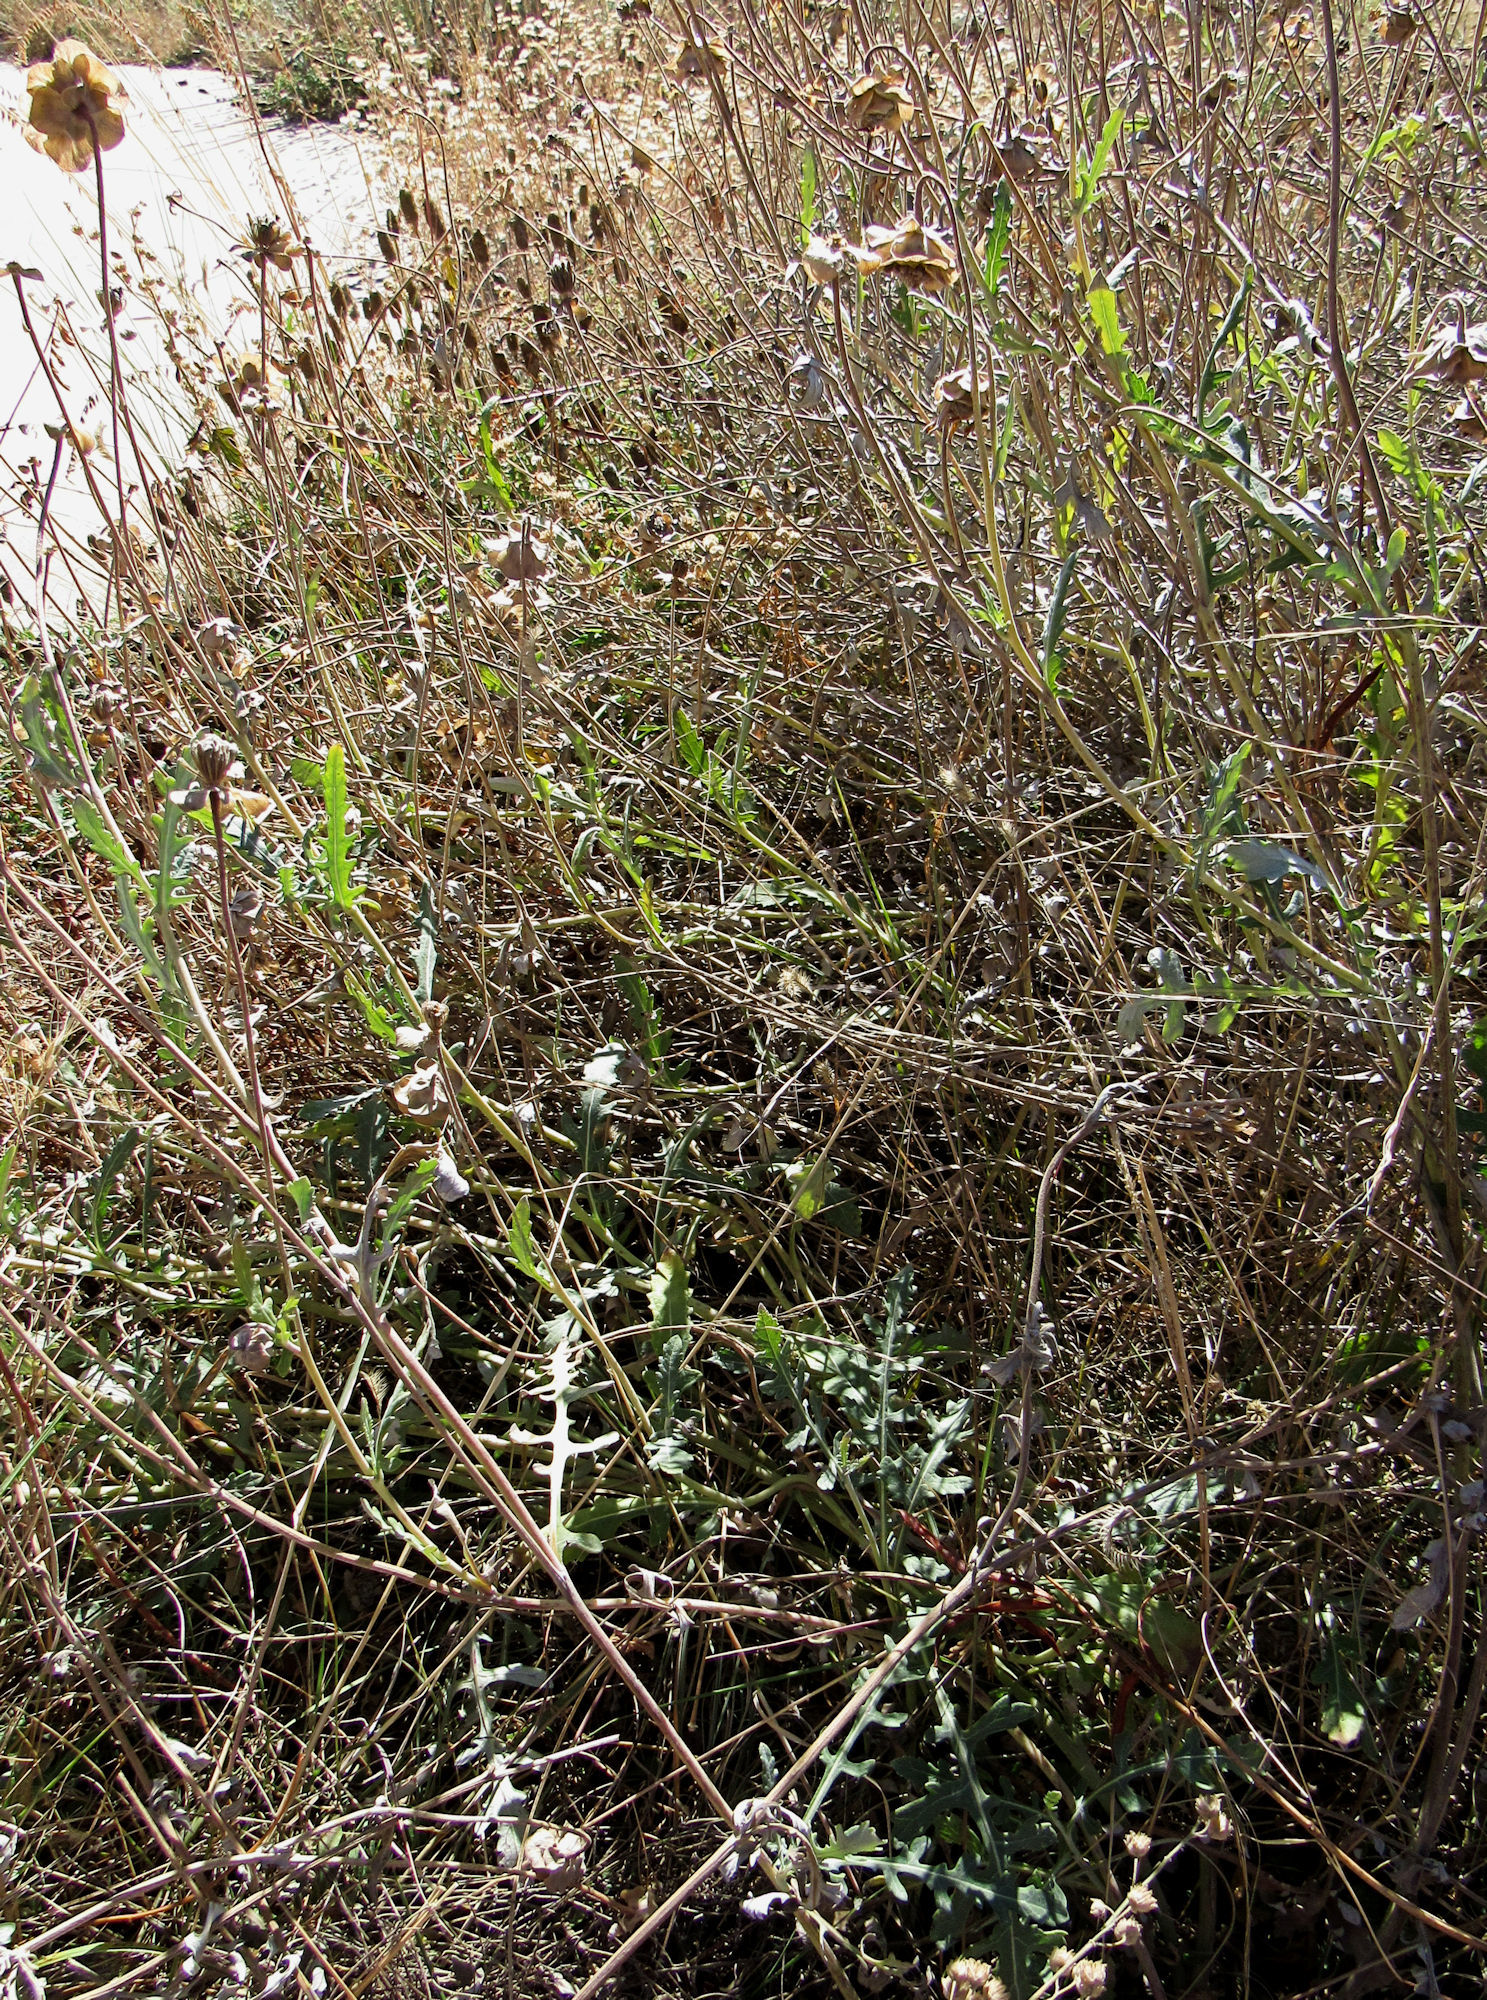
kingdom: Plantae
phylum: Tracheophyta
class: Magnoliopsida
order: Asterales
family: Asteraceae
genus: Berlandiera
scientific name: Berlandiera lyrata
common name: Chocolate-flower
